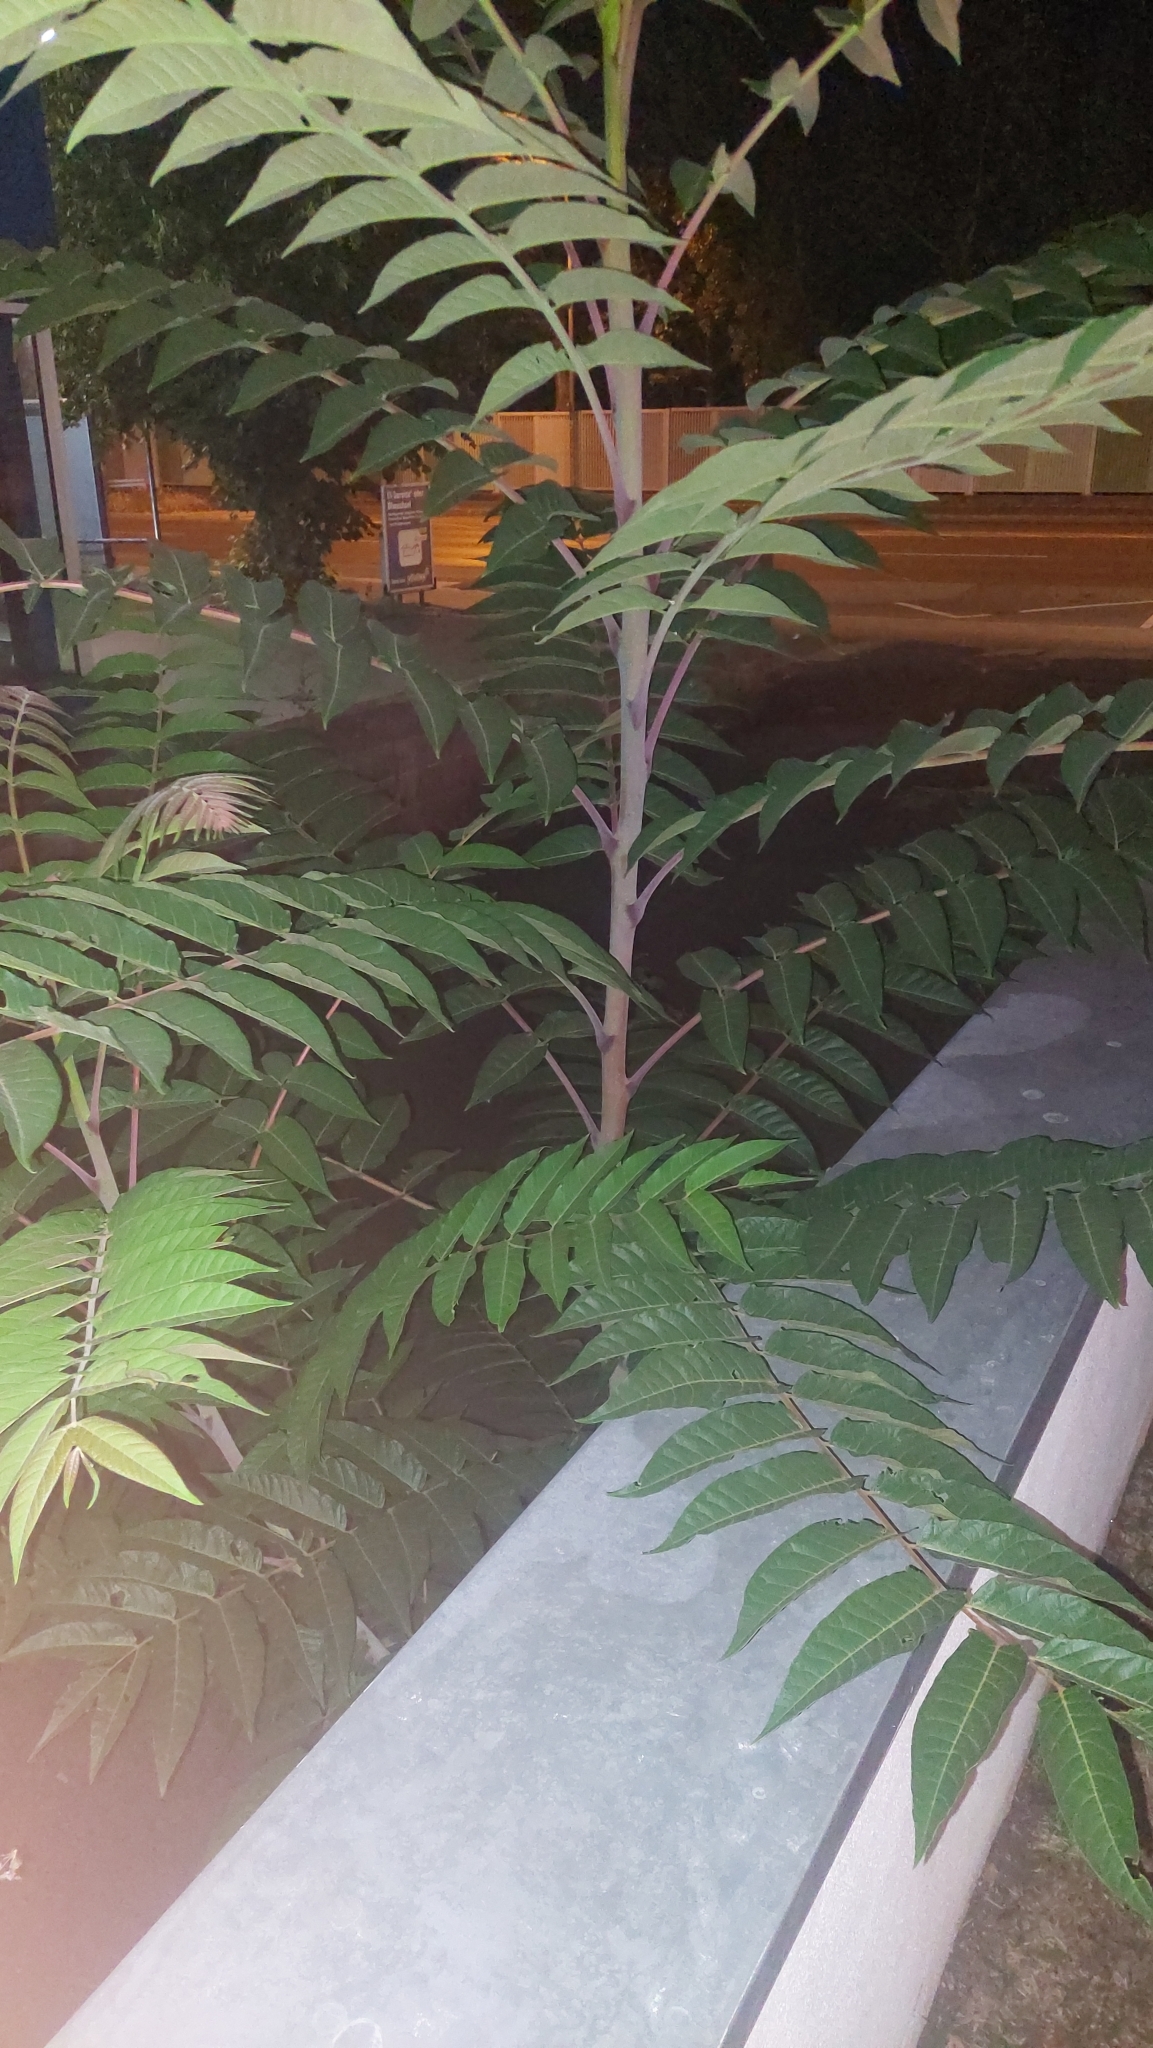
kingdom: Plantae
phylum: Tracheophyta
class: Magnoliopsida
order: Sapindales
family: Simaroubaceae
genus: Ailanthus
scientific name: Ailanthus altissima
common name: Tree-of-heaven
